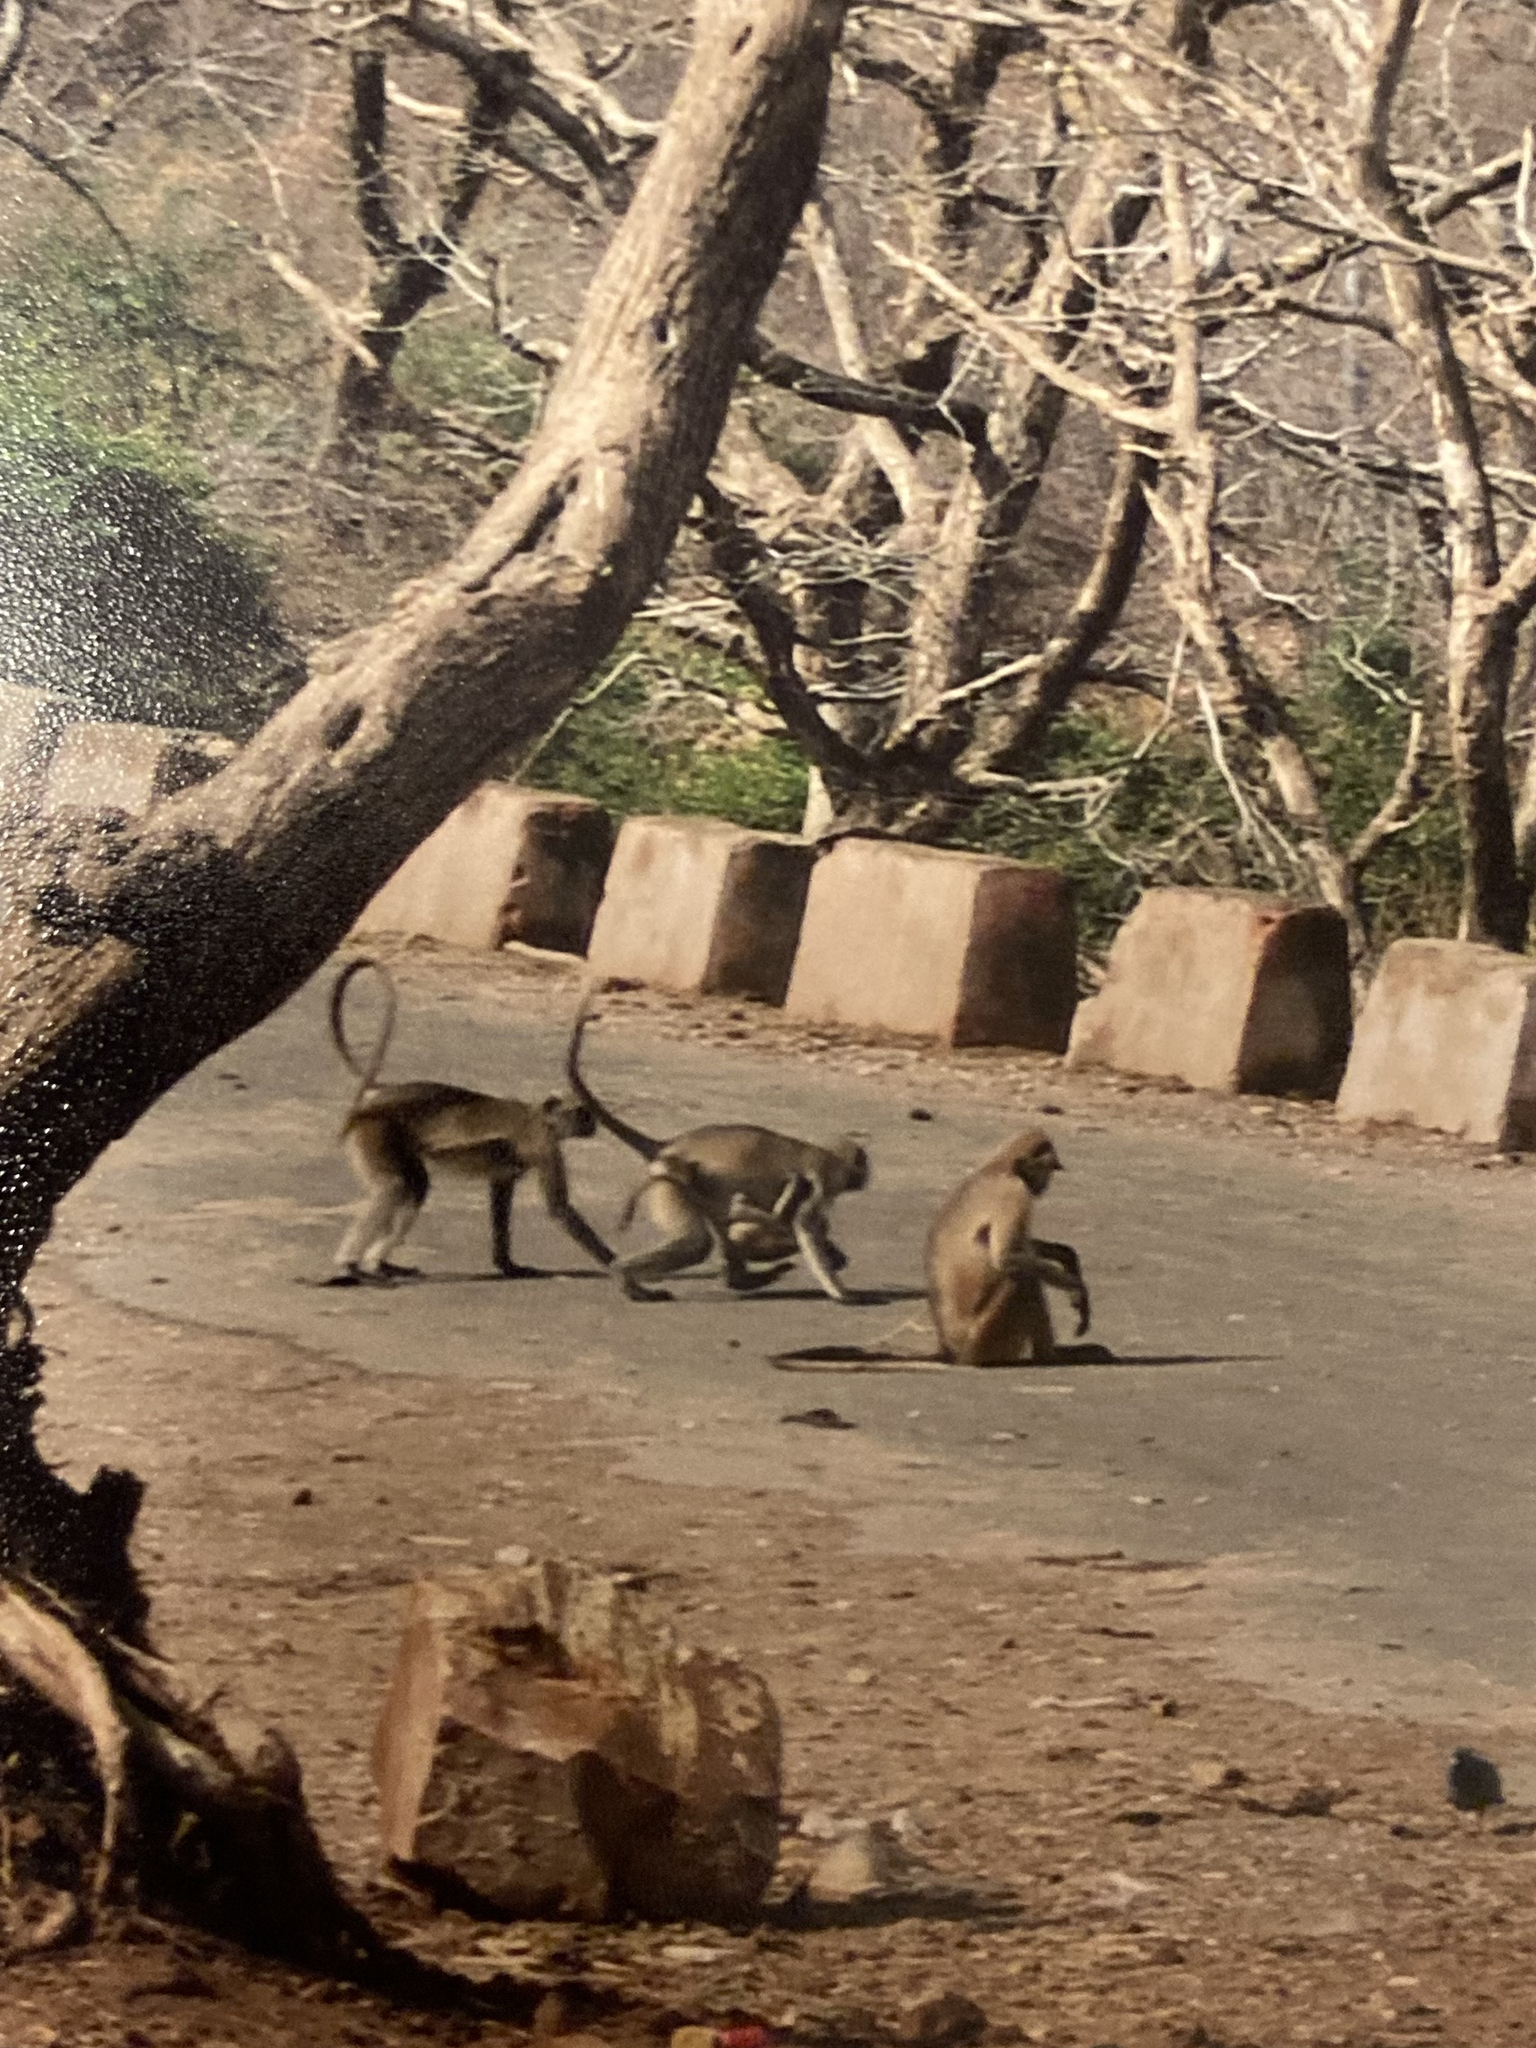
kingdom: Animalia
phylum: Chordata
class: Mammalia
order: Primates
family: Cercopithecidae
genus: Semnopithecus
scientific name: Semnopithecus entellus
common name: Northern plains gray langur
